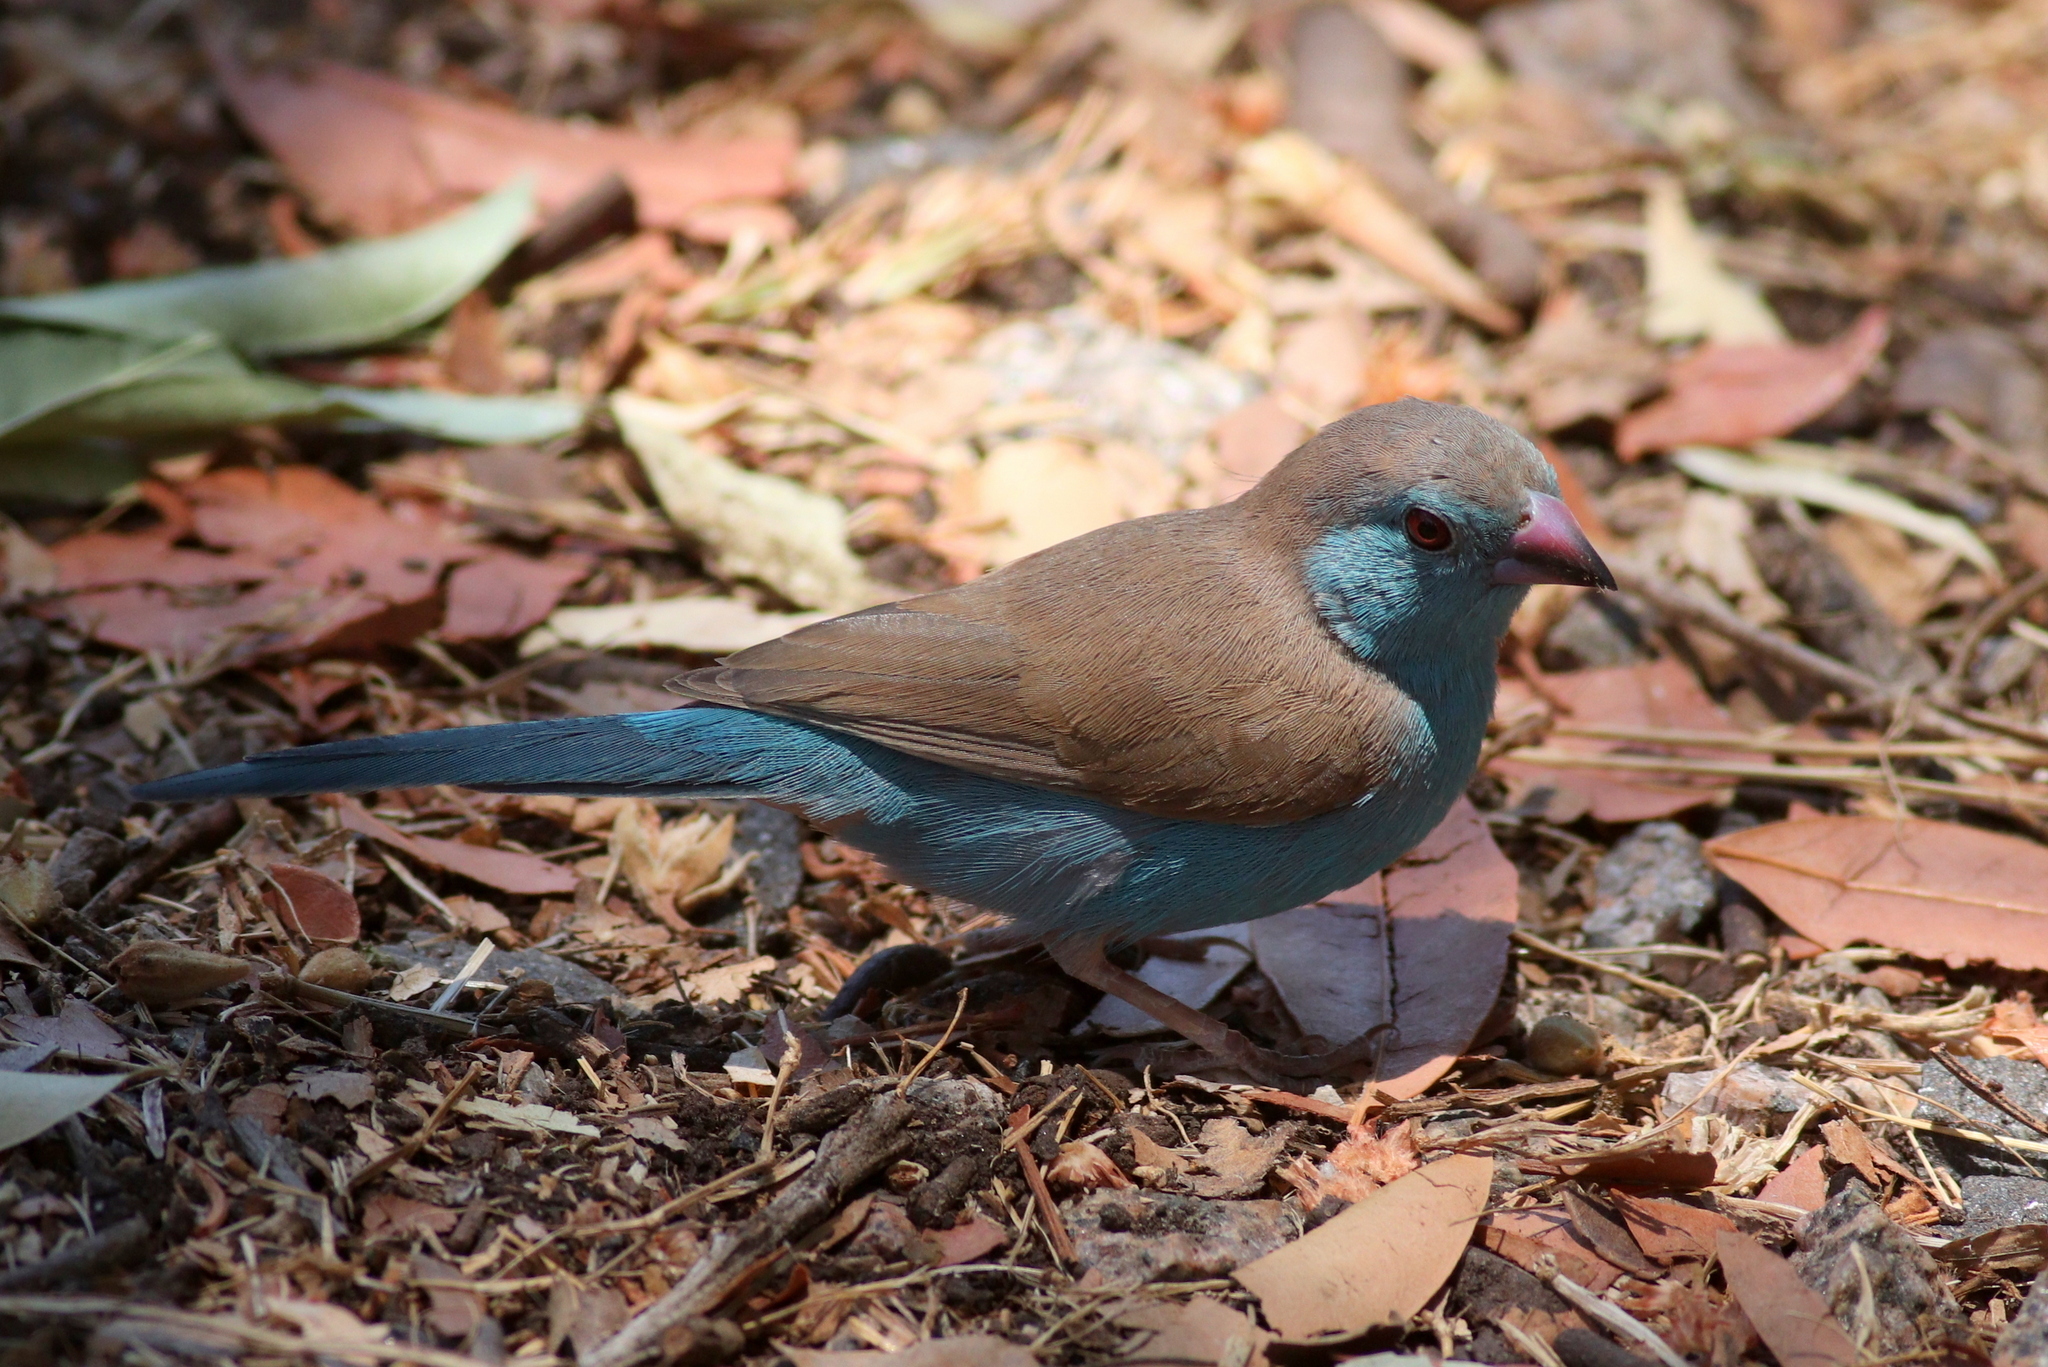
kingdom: Animalia
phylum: Chordata
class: Aves
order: Passeriformes
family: Estrildidae
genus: Uraeginthus
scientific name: Uraeginthus angolensis
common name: Blue waxbill
